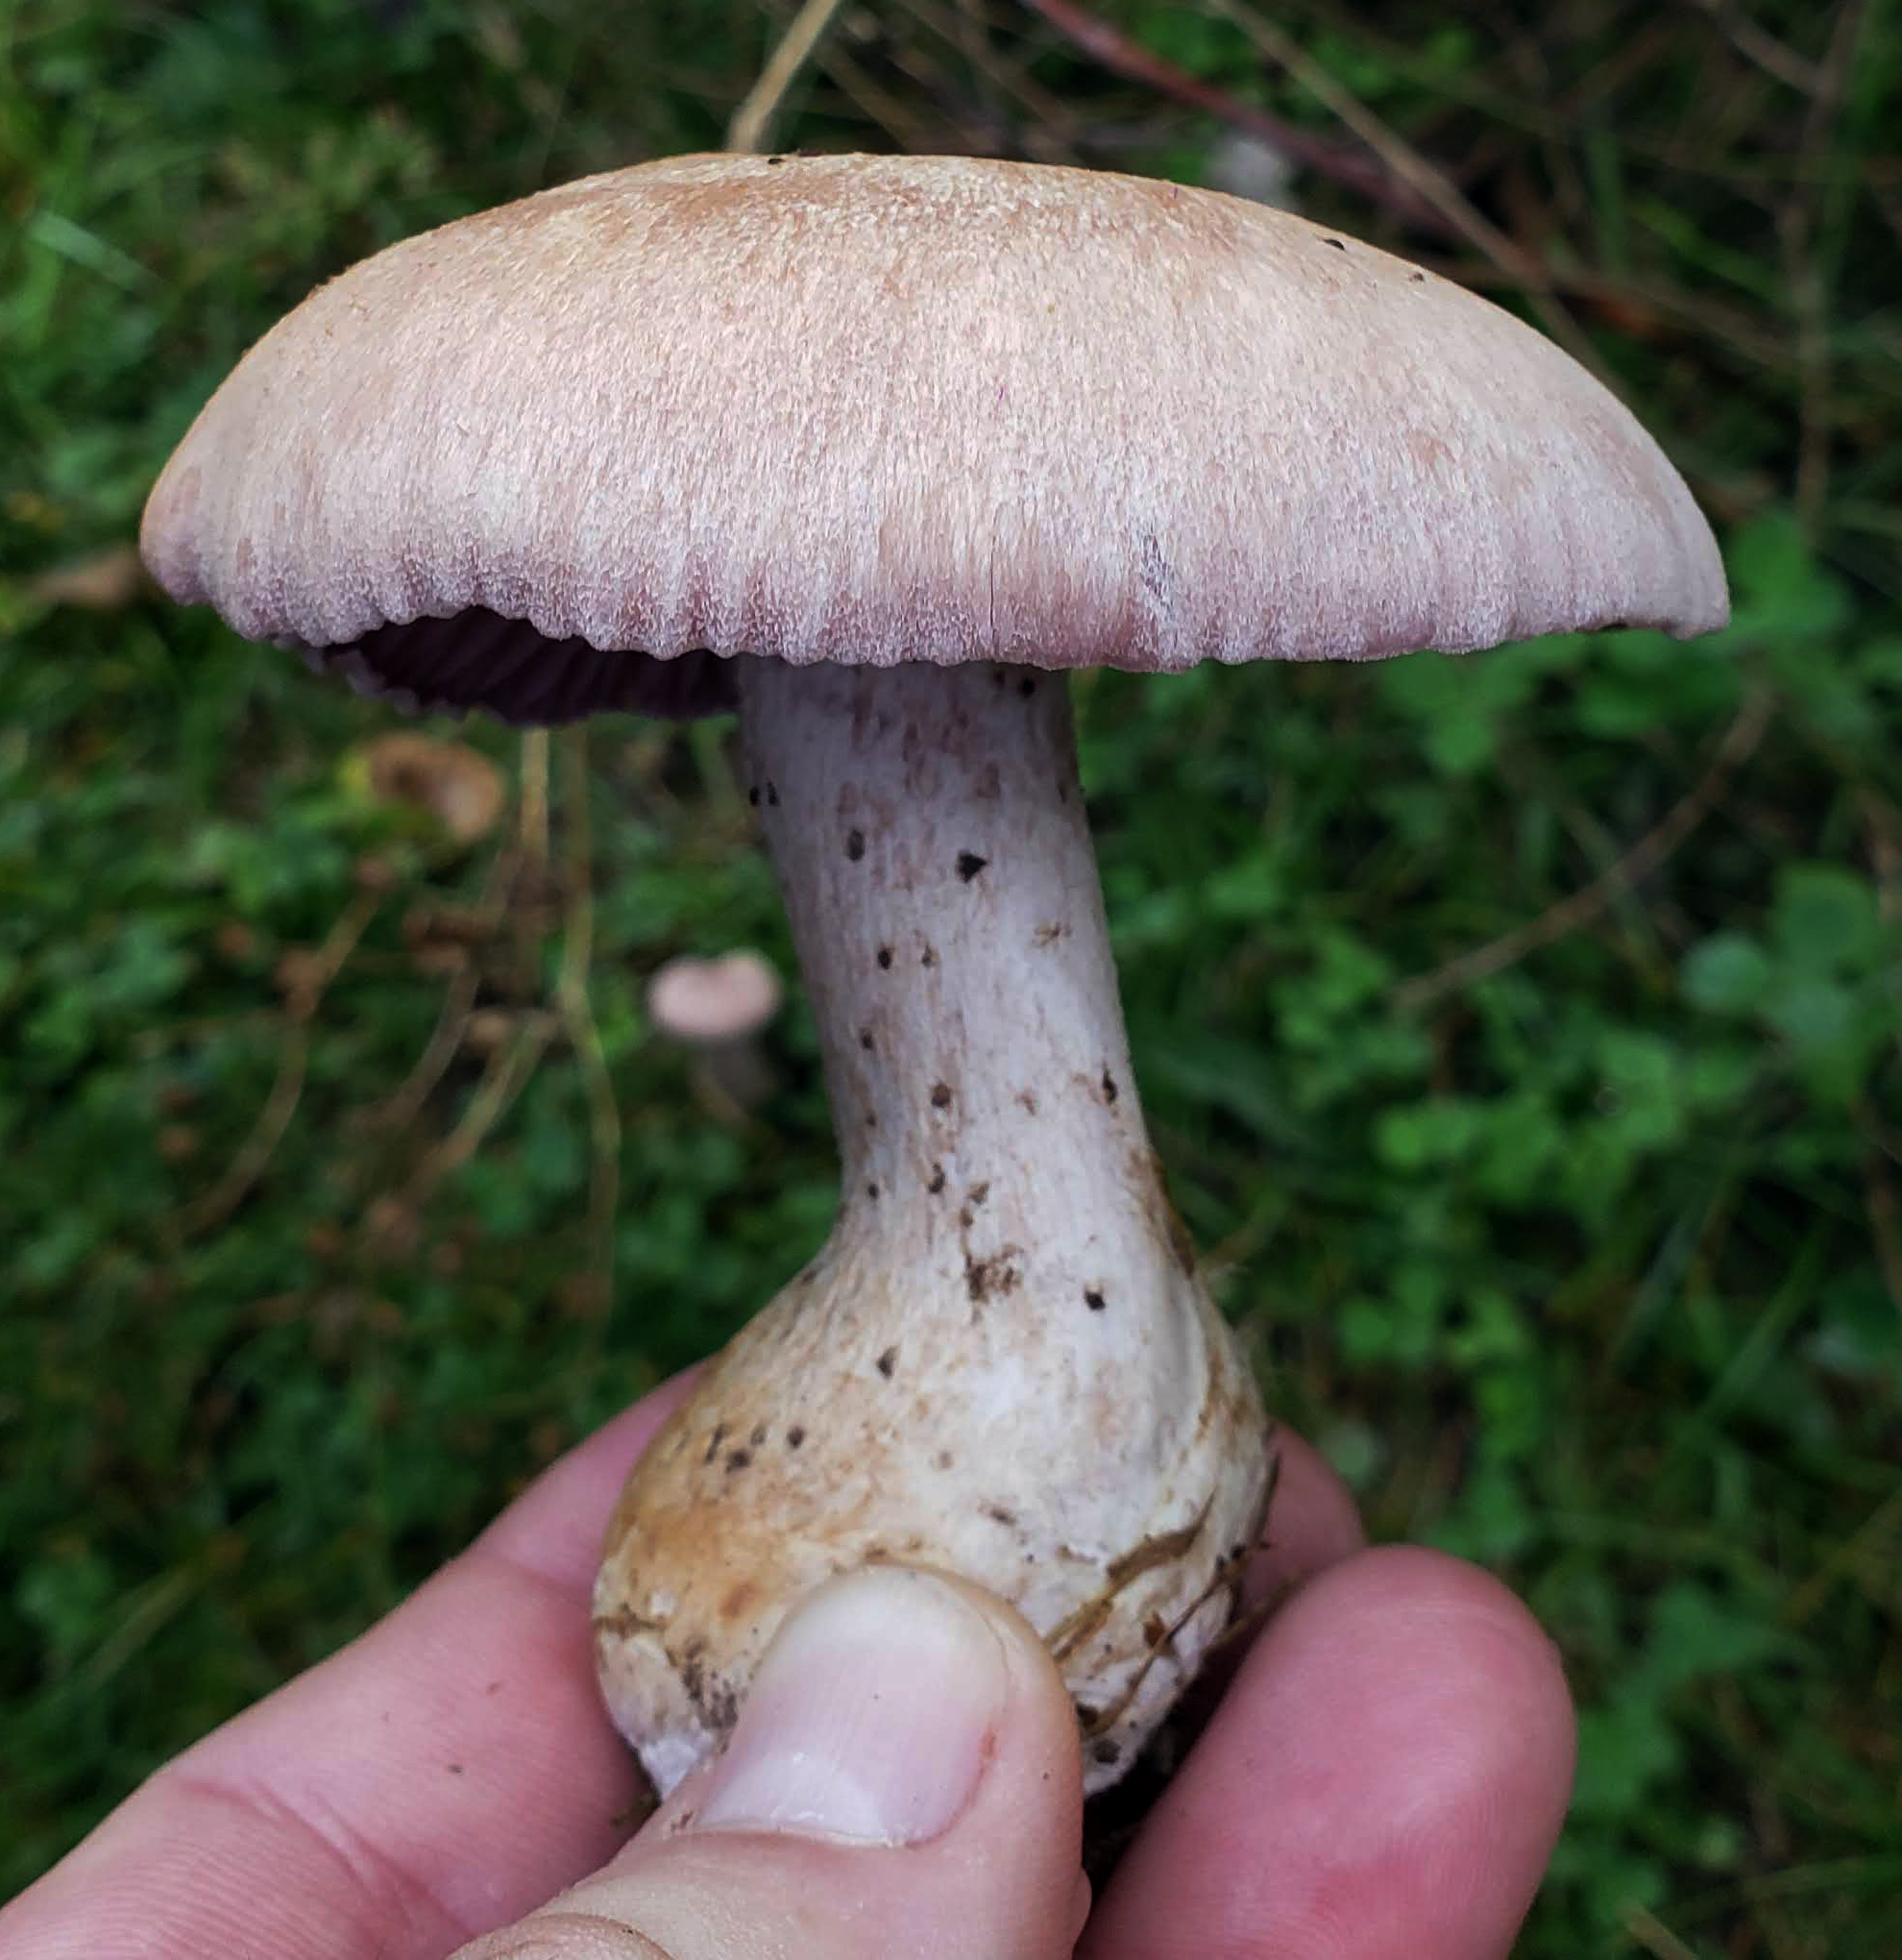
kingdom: Fungi
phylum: Basidiomycota
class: Agaricomycetes
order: Agaricales
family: Hydnangiaceae
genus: Laccaria
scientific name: Laccaria ochropurpurea
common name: Purple laccaria
